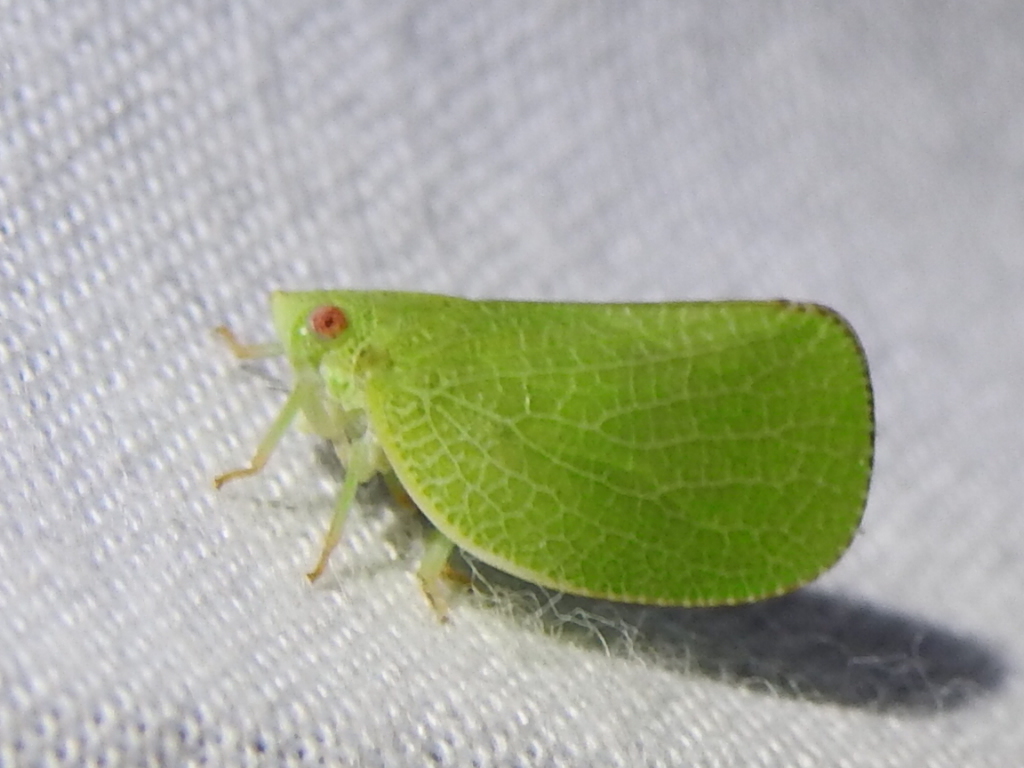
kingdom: Animalia
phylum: Arthropoda
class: Insecta
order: Hemiptera
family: Acanaloniidae
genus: Acanalonia
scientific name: Acanalonia conica
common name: Green cone-headed planthopper
